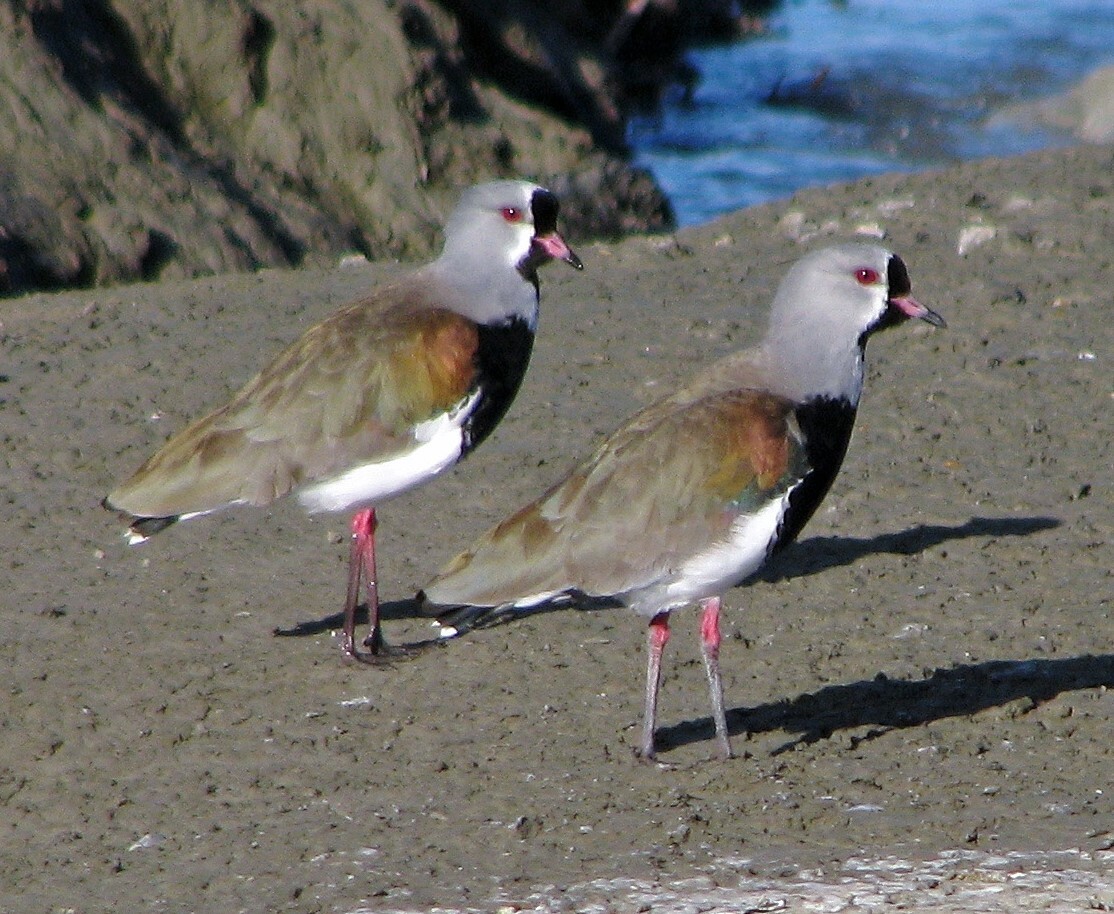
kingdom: Animalia
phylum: Chordata
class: Aves
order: Charadriiformes
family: Charadriidae
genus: Vanellus
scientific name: Vanellus chilensis
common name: Southern lapwing
